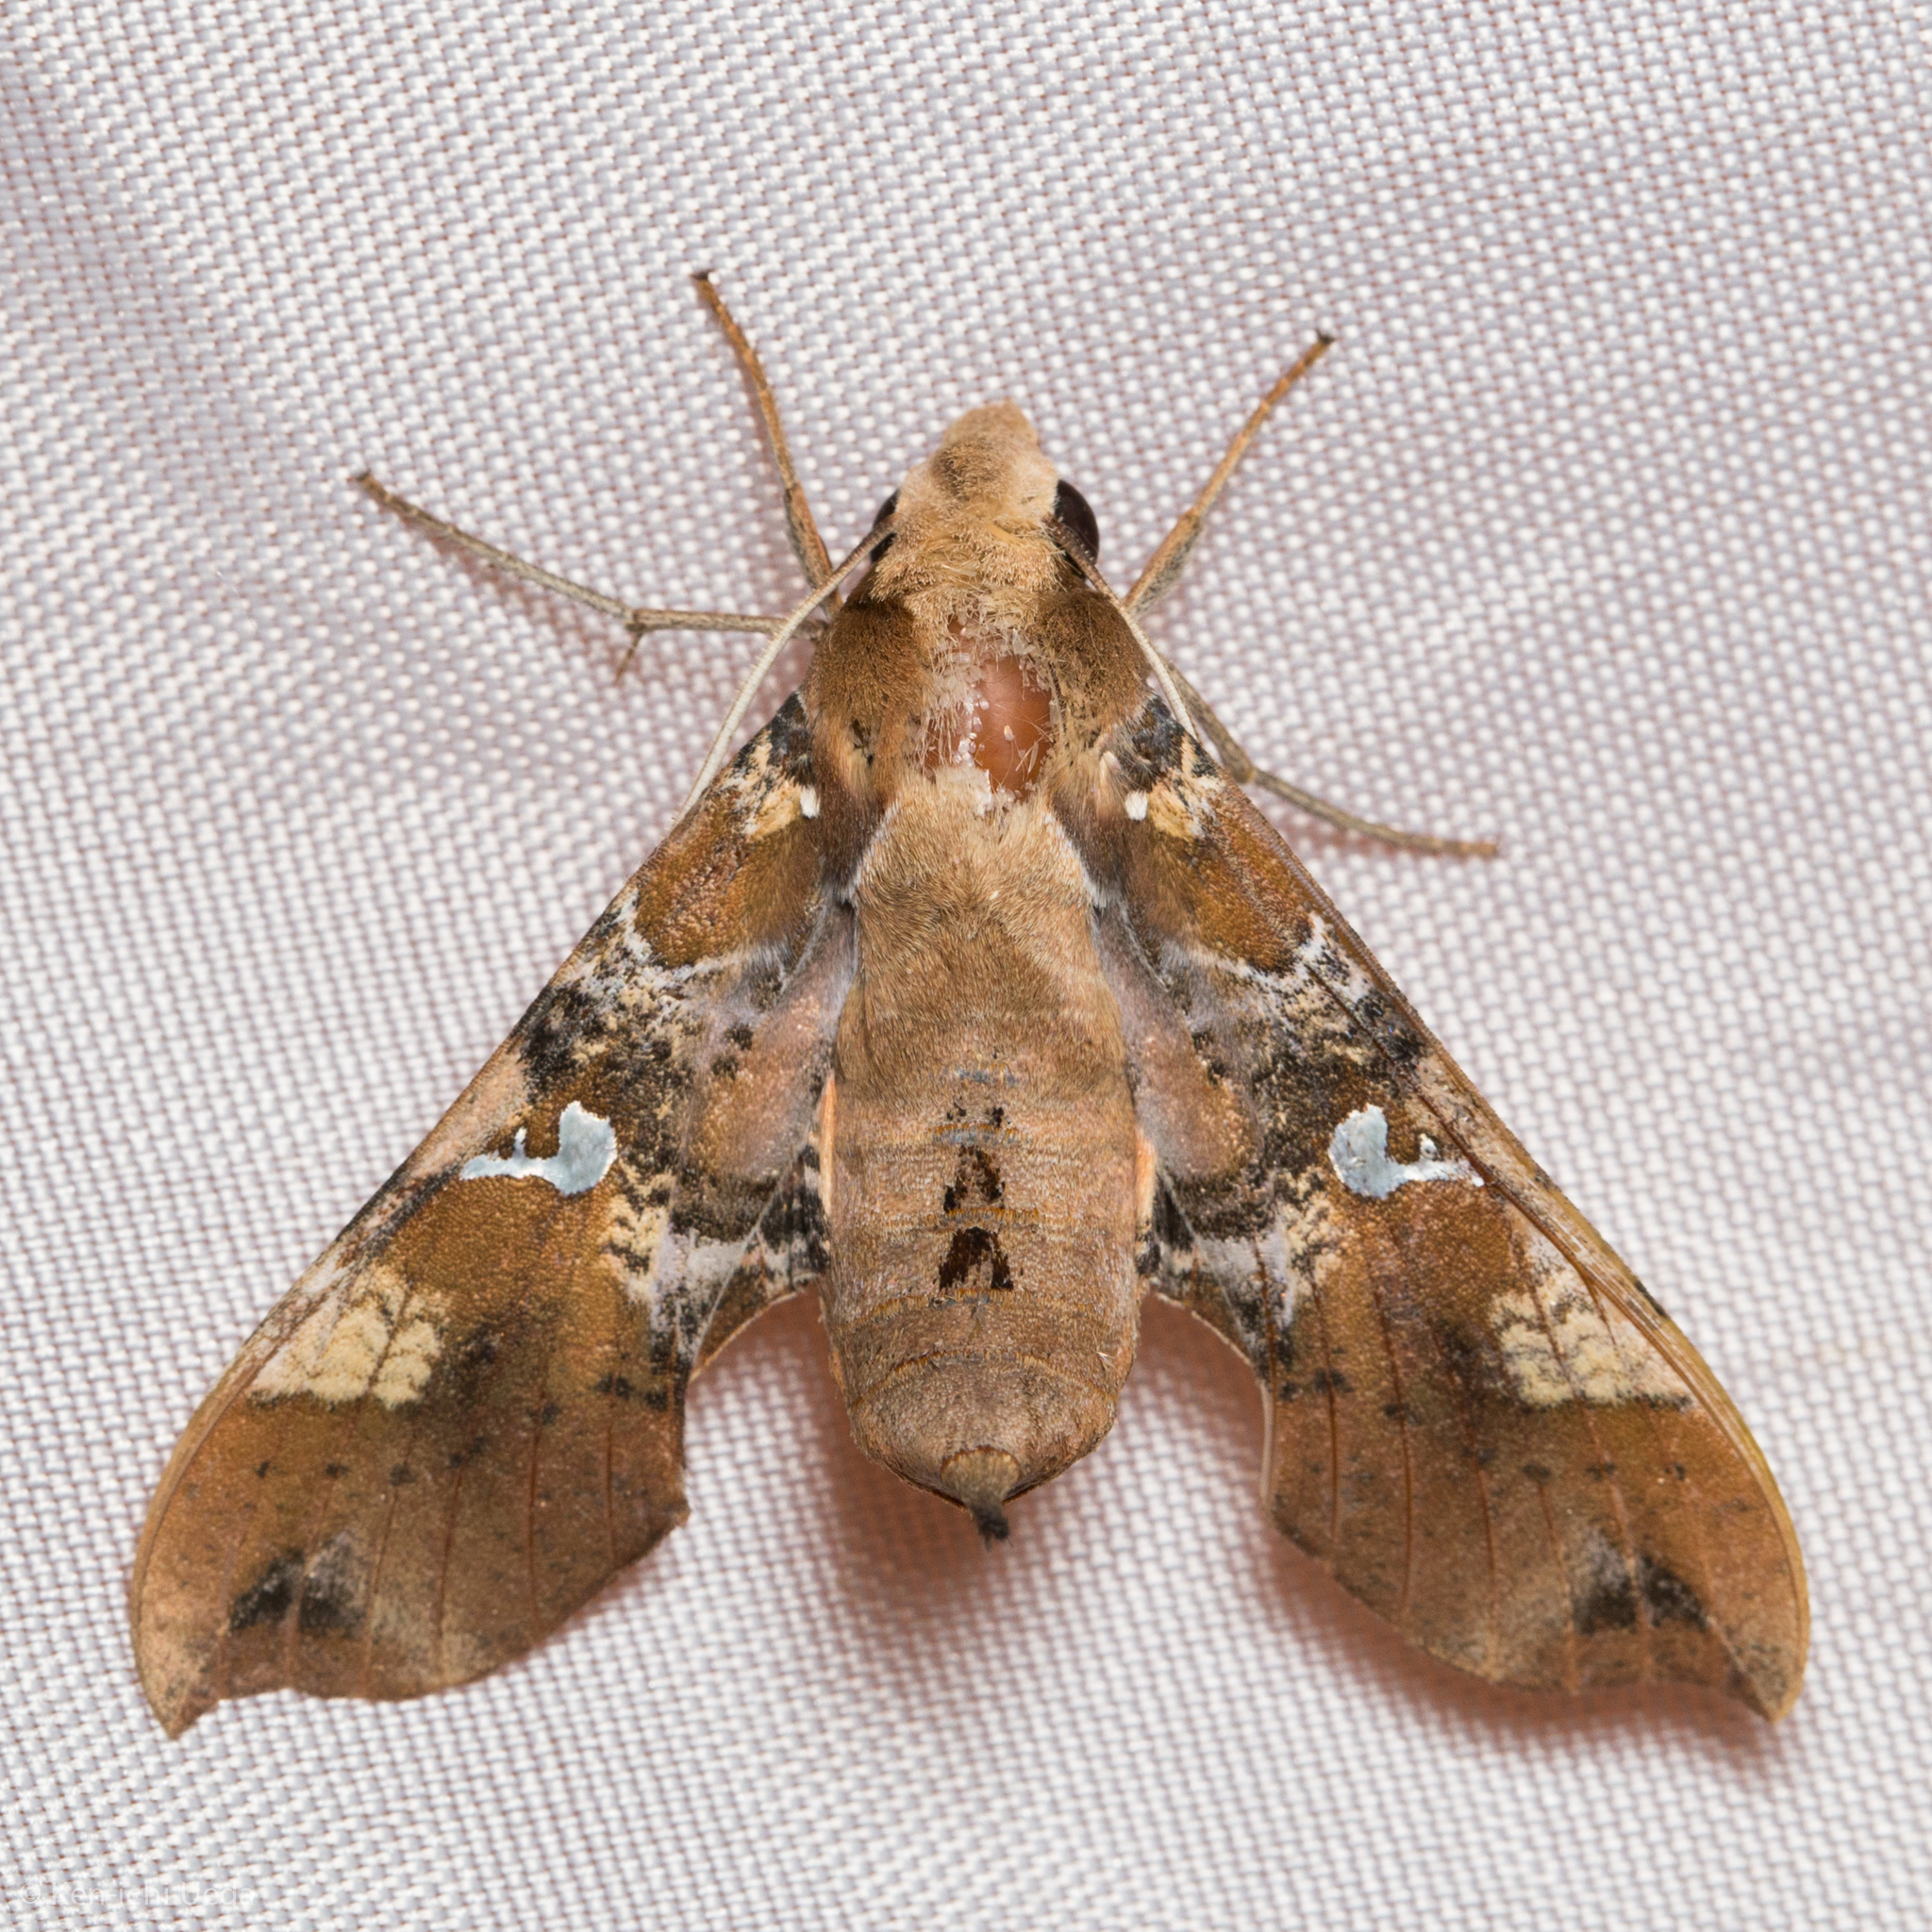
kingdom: Animalia
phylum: Arthropoda
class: Insecta
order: Lepidoptera
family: Sphingidae
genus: Callionima
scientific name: Callionima falcifera
